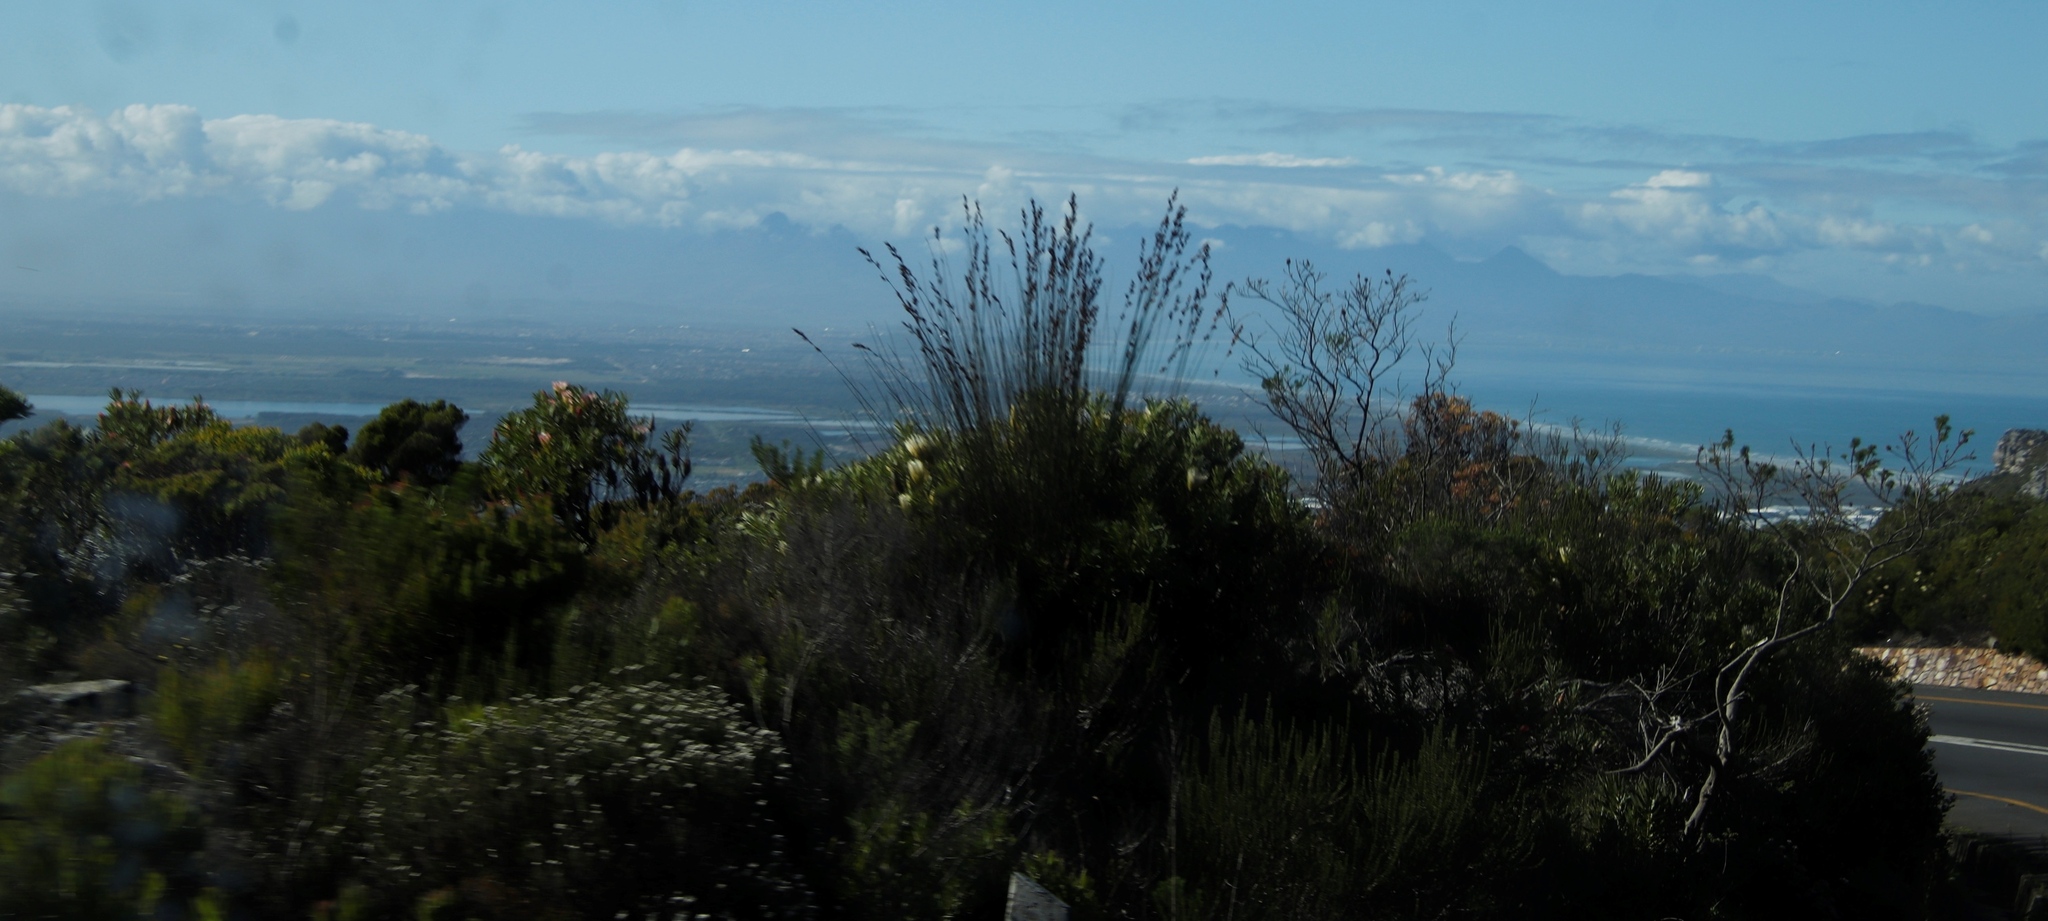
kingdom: Plantae
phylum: Tracheophyta
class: Liliopsida
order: Poales
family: Restionaceae
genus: Thamnochortus
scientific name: Thamnochortus insignis
